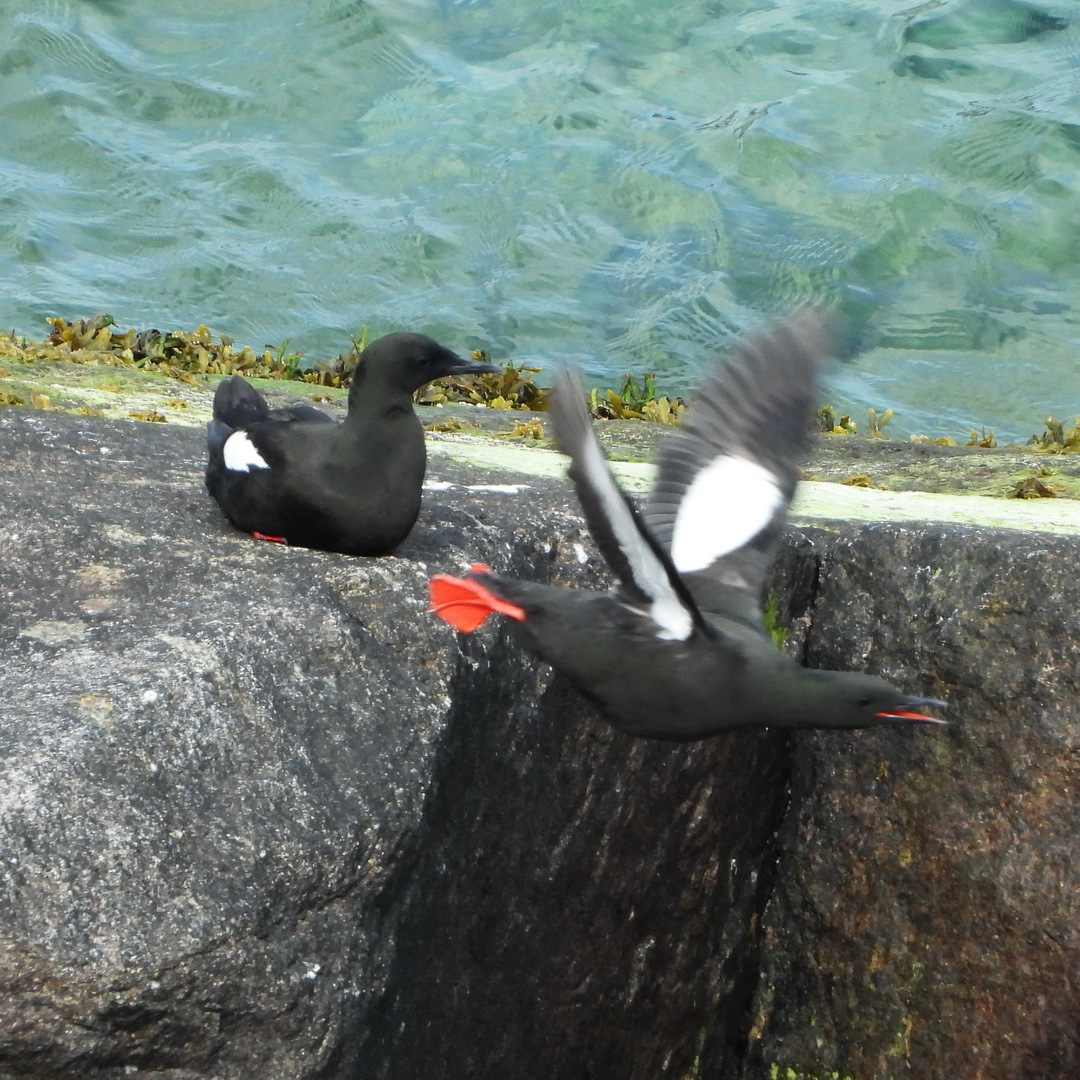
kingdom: Animalia
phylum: Chordata
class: Aves
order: Charadriiformes
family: Alcidae
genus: Cepphus
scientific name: Cepphus grylle
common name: Black guillemot
